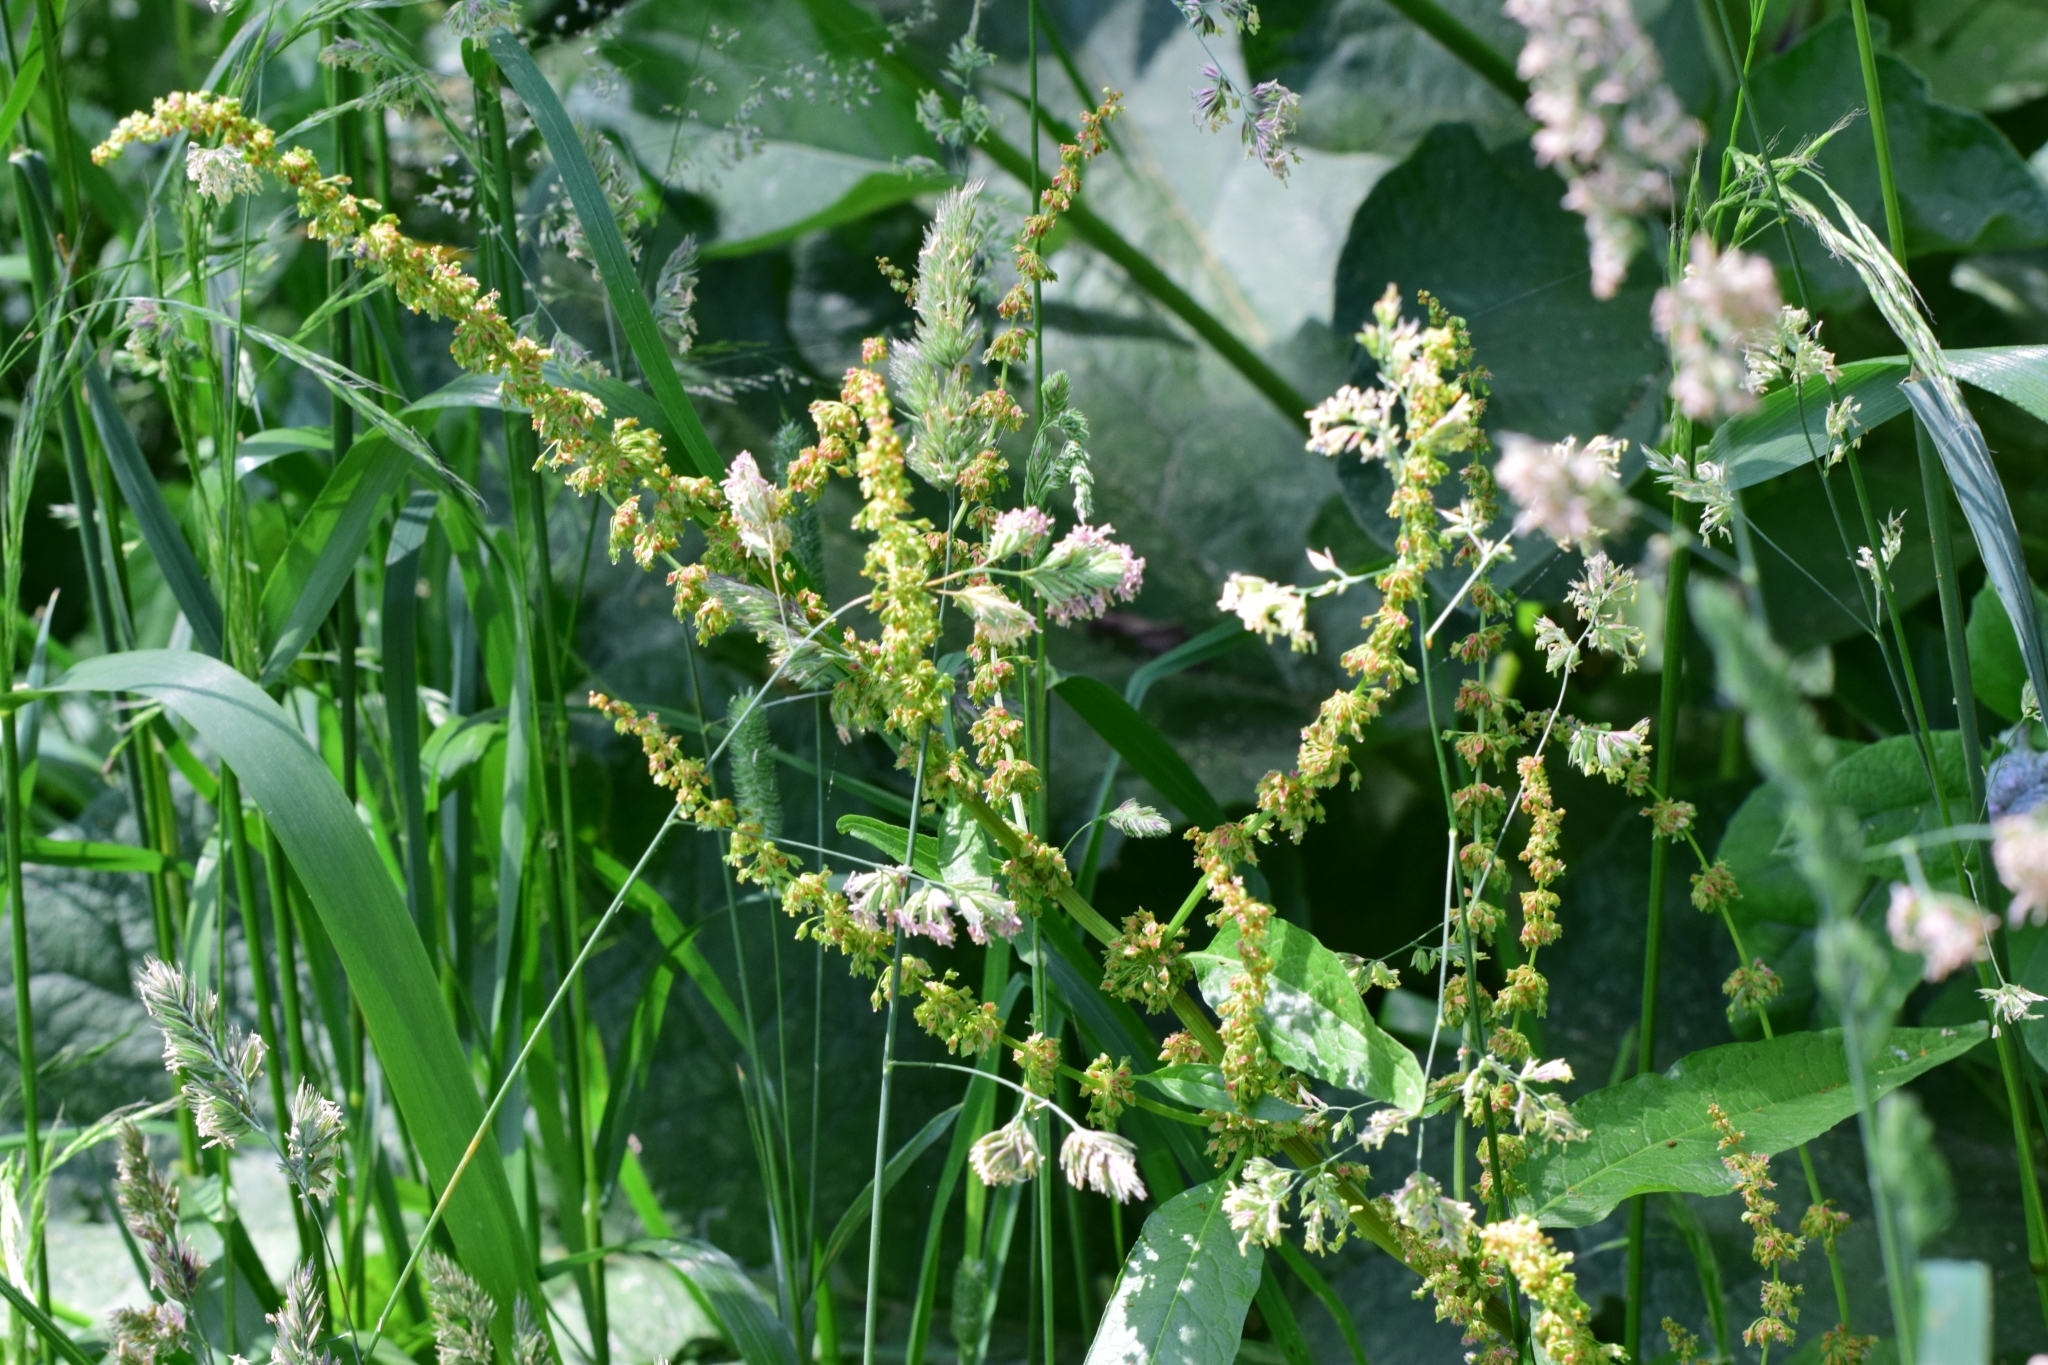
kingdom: Plantae
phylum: Tracheophyta
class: Magnoliopsida
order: Caryophyllales
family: Polygonaceae
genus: Rumex
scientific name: Rumex obtusifolius
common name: Bitter dock
